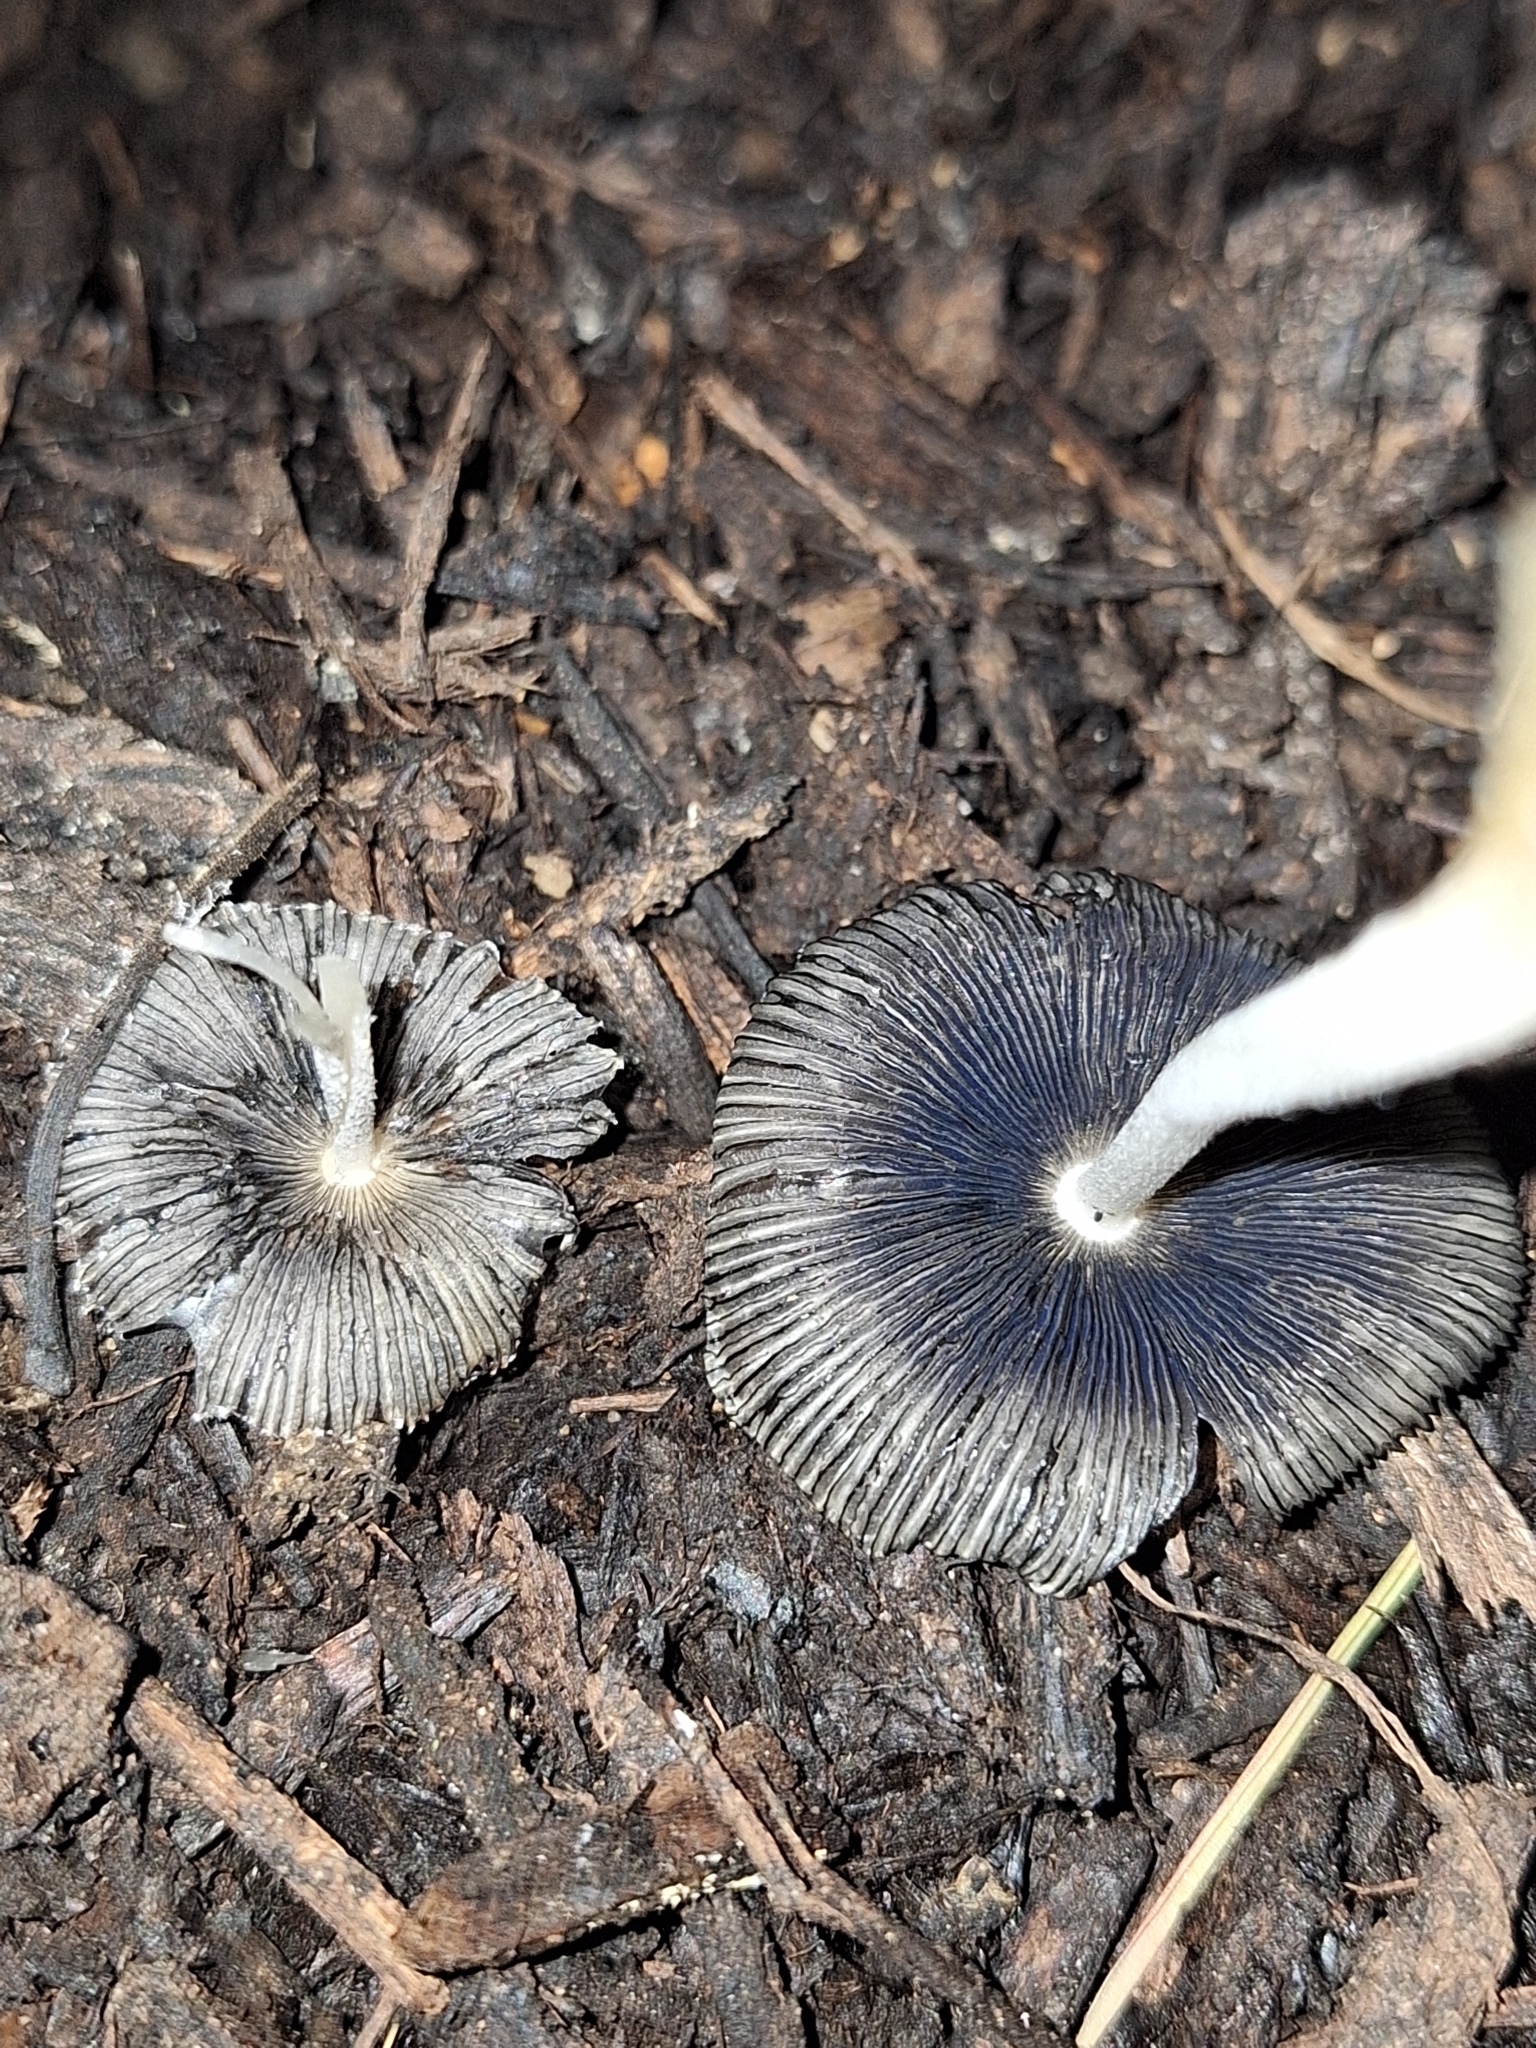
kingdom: Fungi
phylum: Basidiomycota
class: Agaricomycetes
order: Agaricales
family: Psathyrellaceae
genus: Coprinopsis
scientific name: Coprinopsis lagopus
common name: Hare'sfoot inkcap
